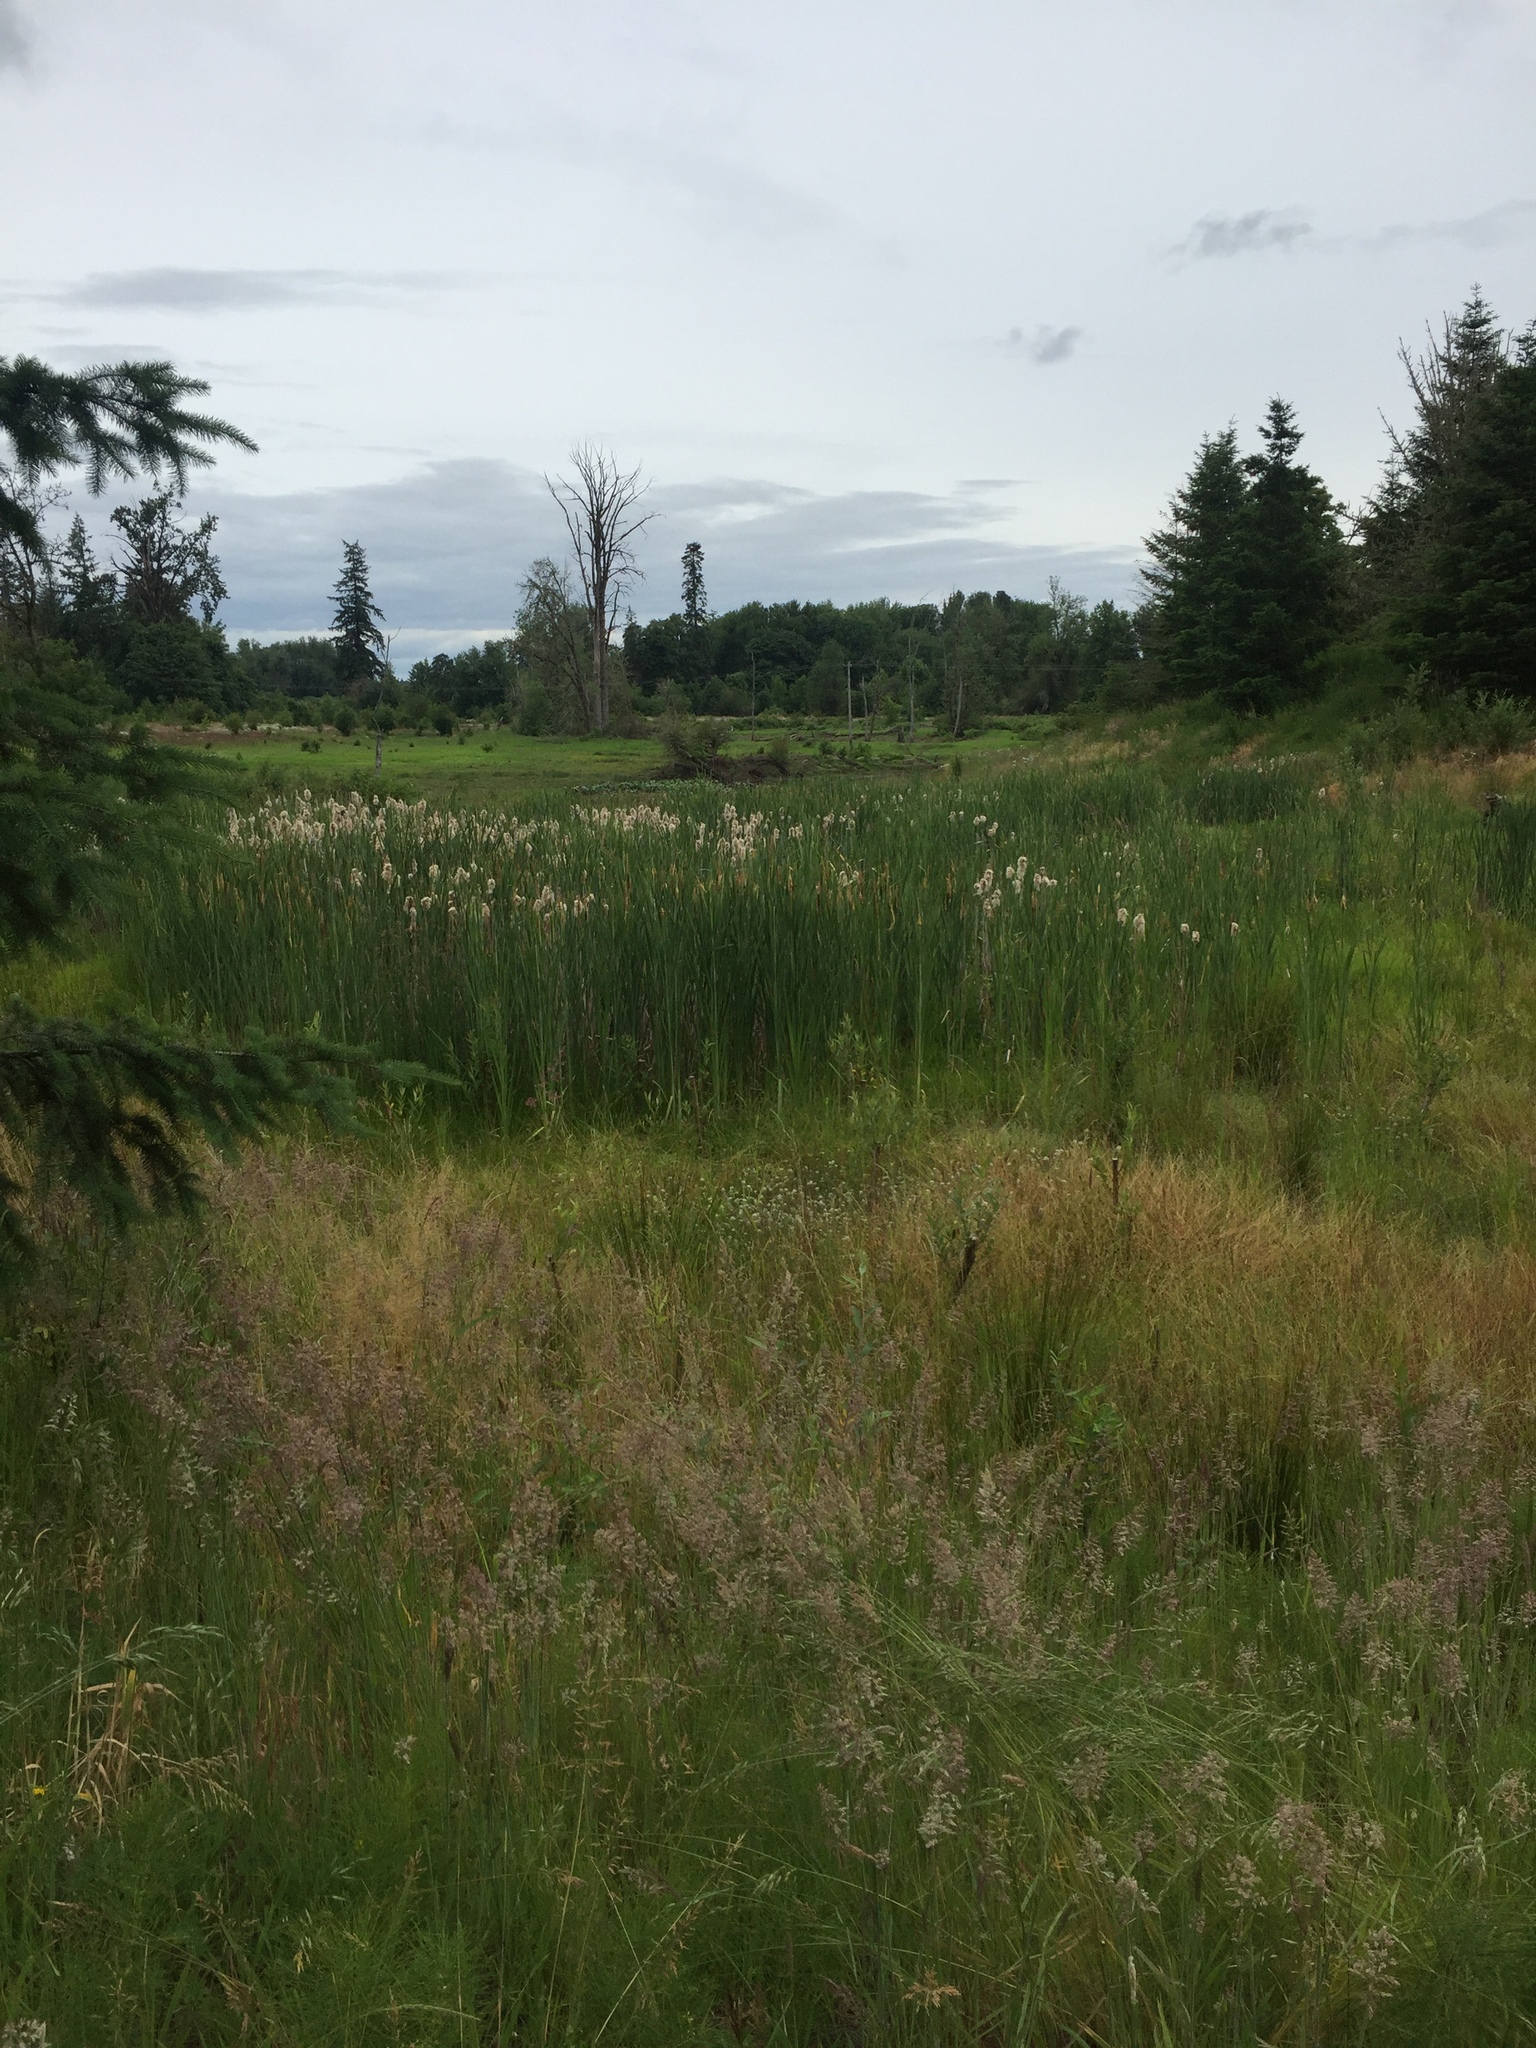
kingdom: Plantae
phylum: Tracheophyta
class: Liliopsida
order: Poales
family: Typhaceae
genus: Typha
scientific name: Typha latifolia
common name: Broadleaf cattail
